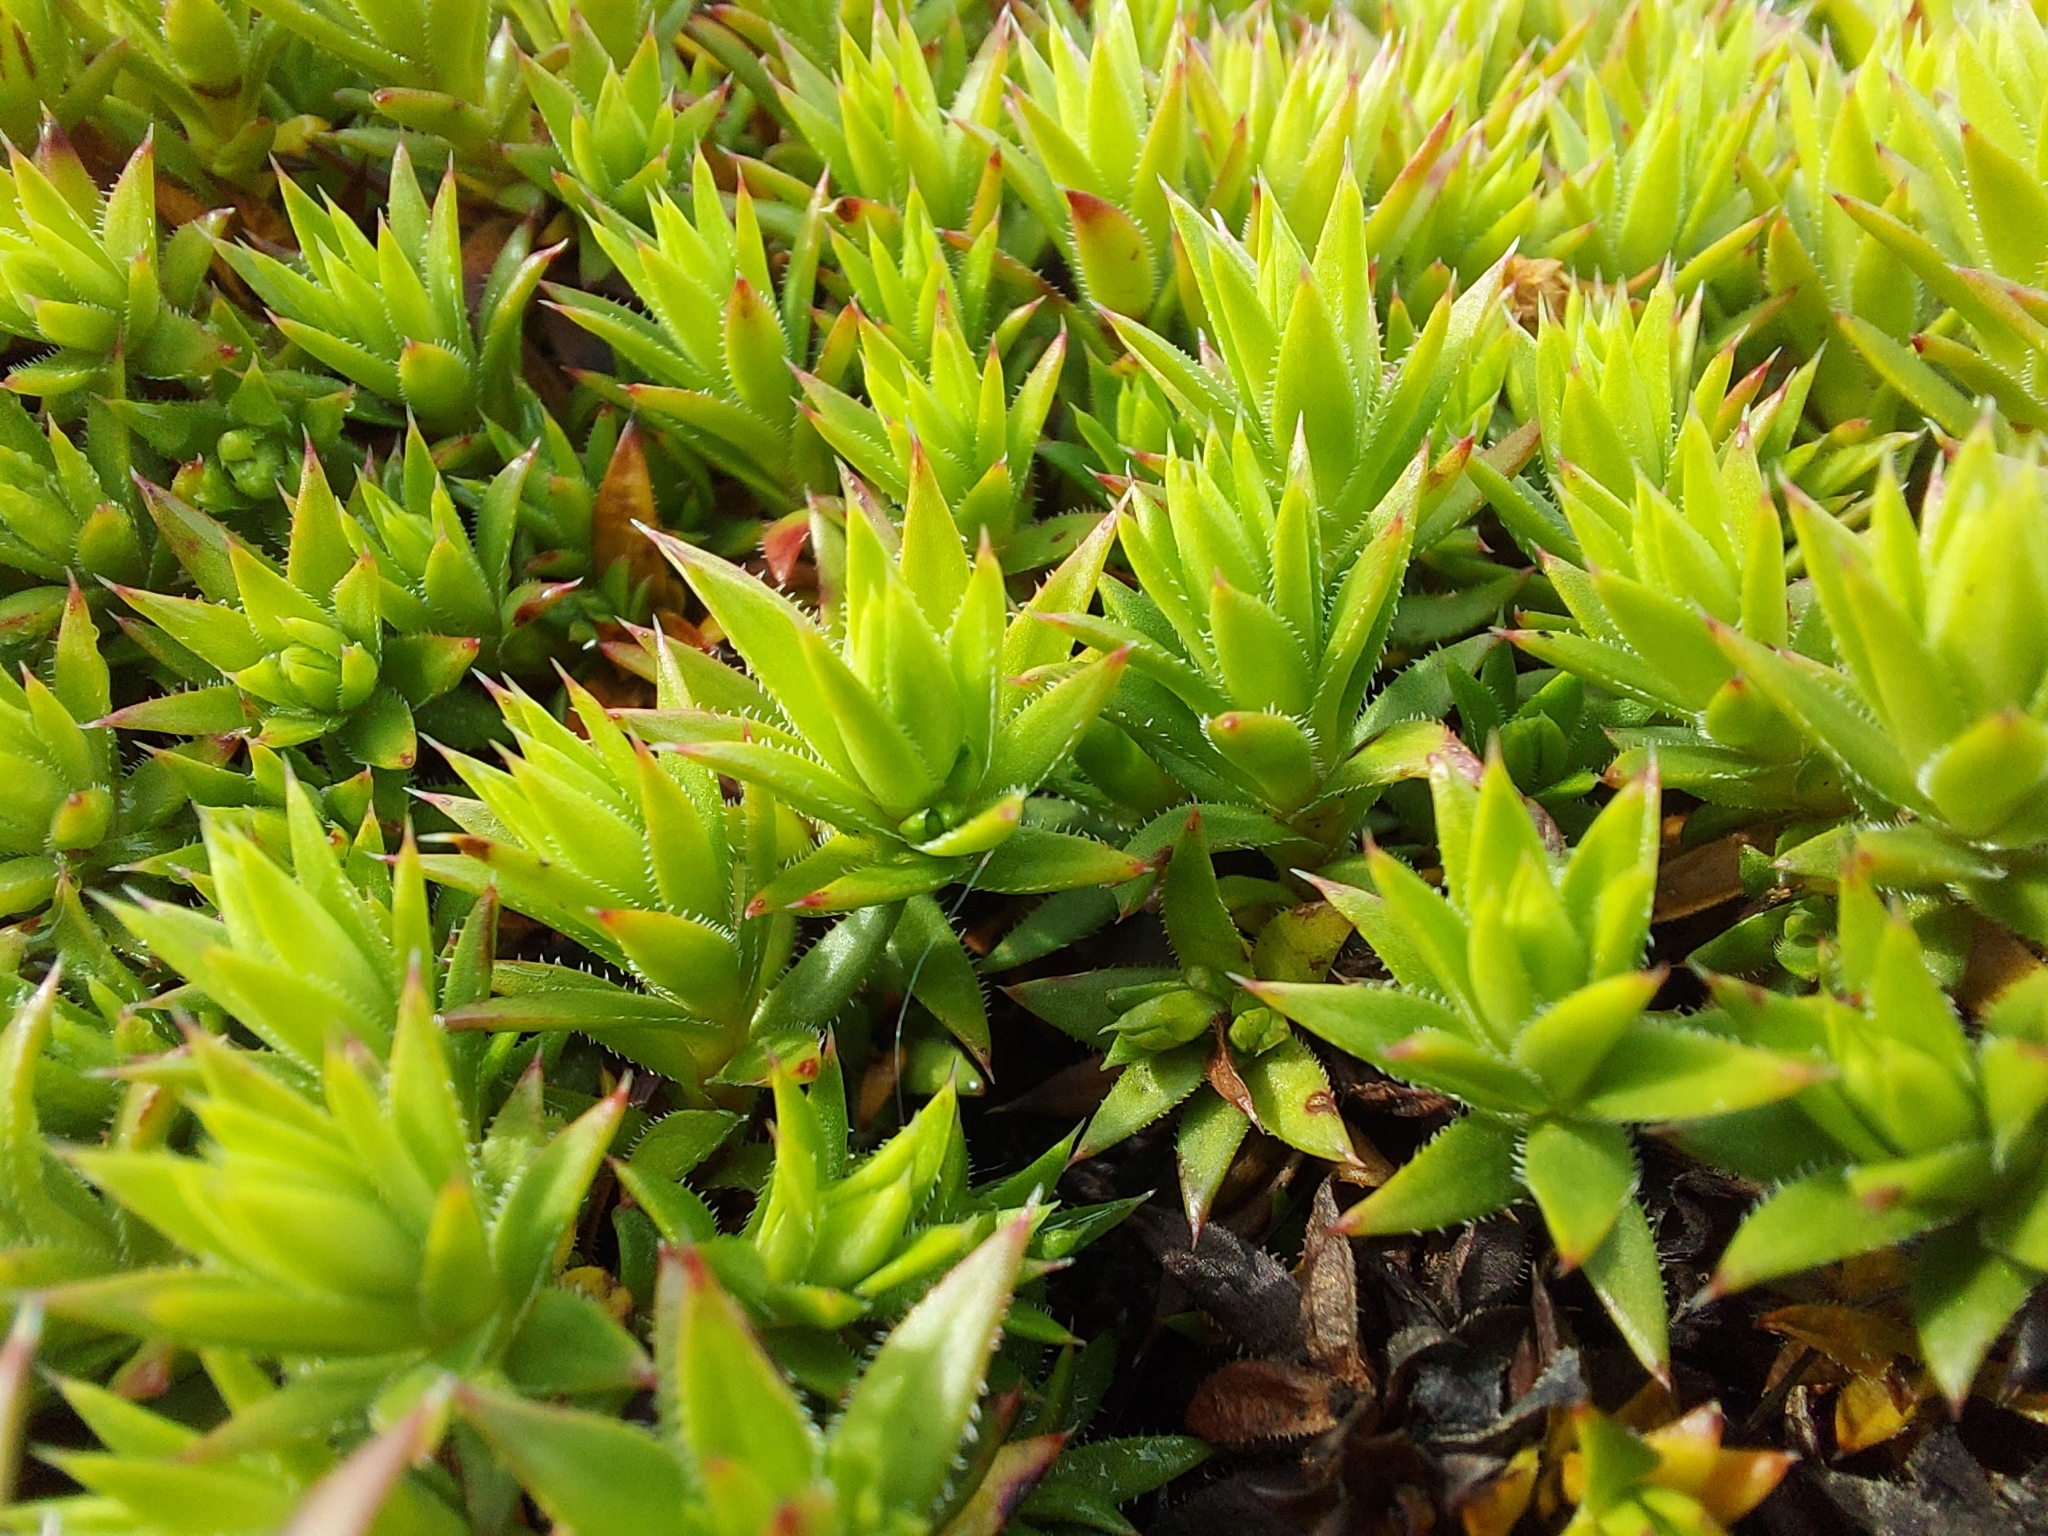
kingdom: Plantae
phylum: Tracheophyta
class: Magnoliopsida
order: Saxifragales
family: Saxifragaceae
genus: Saxifraga
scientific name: Saxifraga bronchialis
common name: Matted saxifrage
